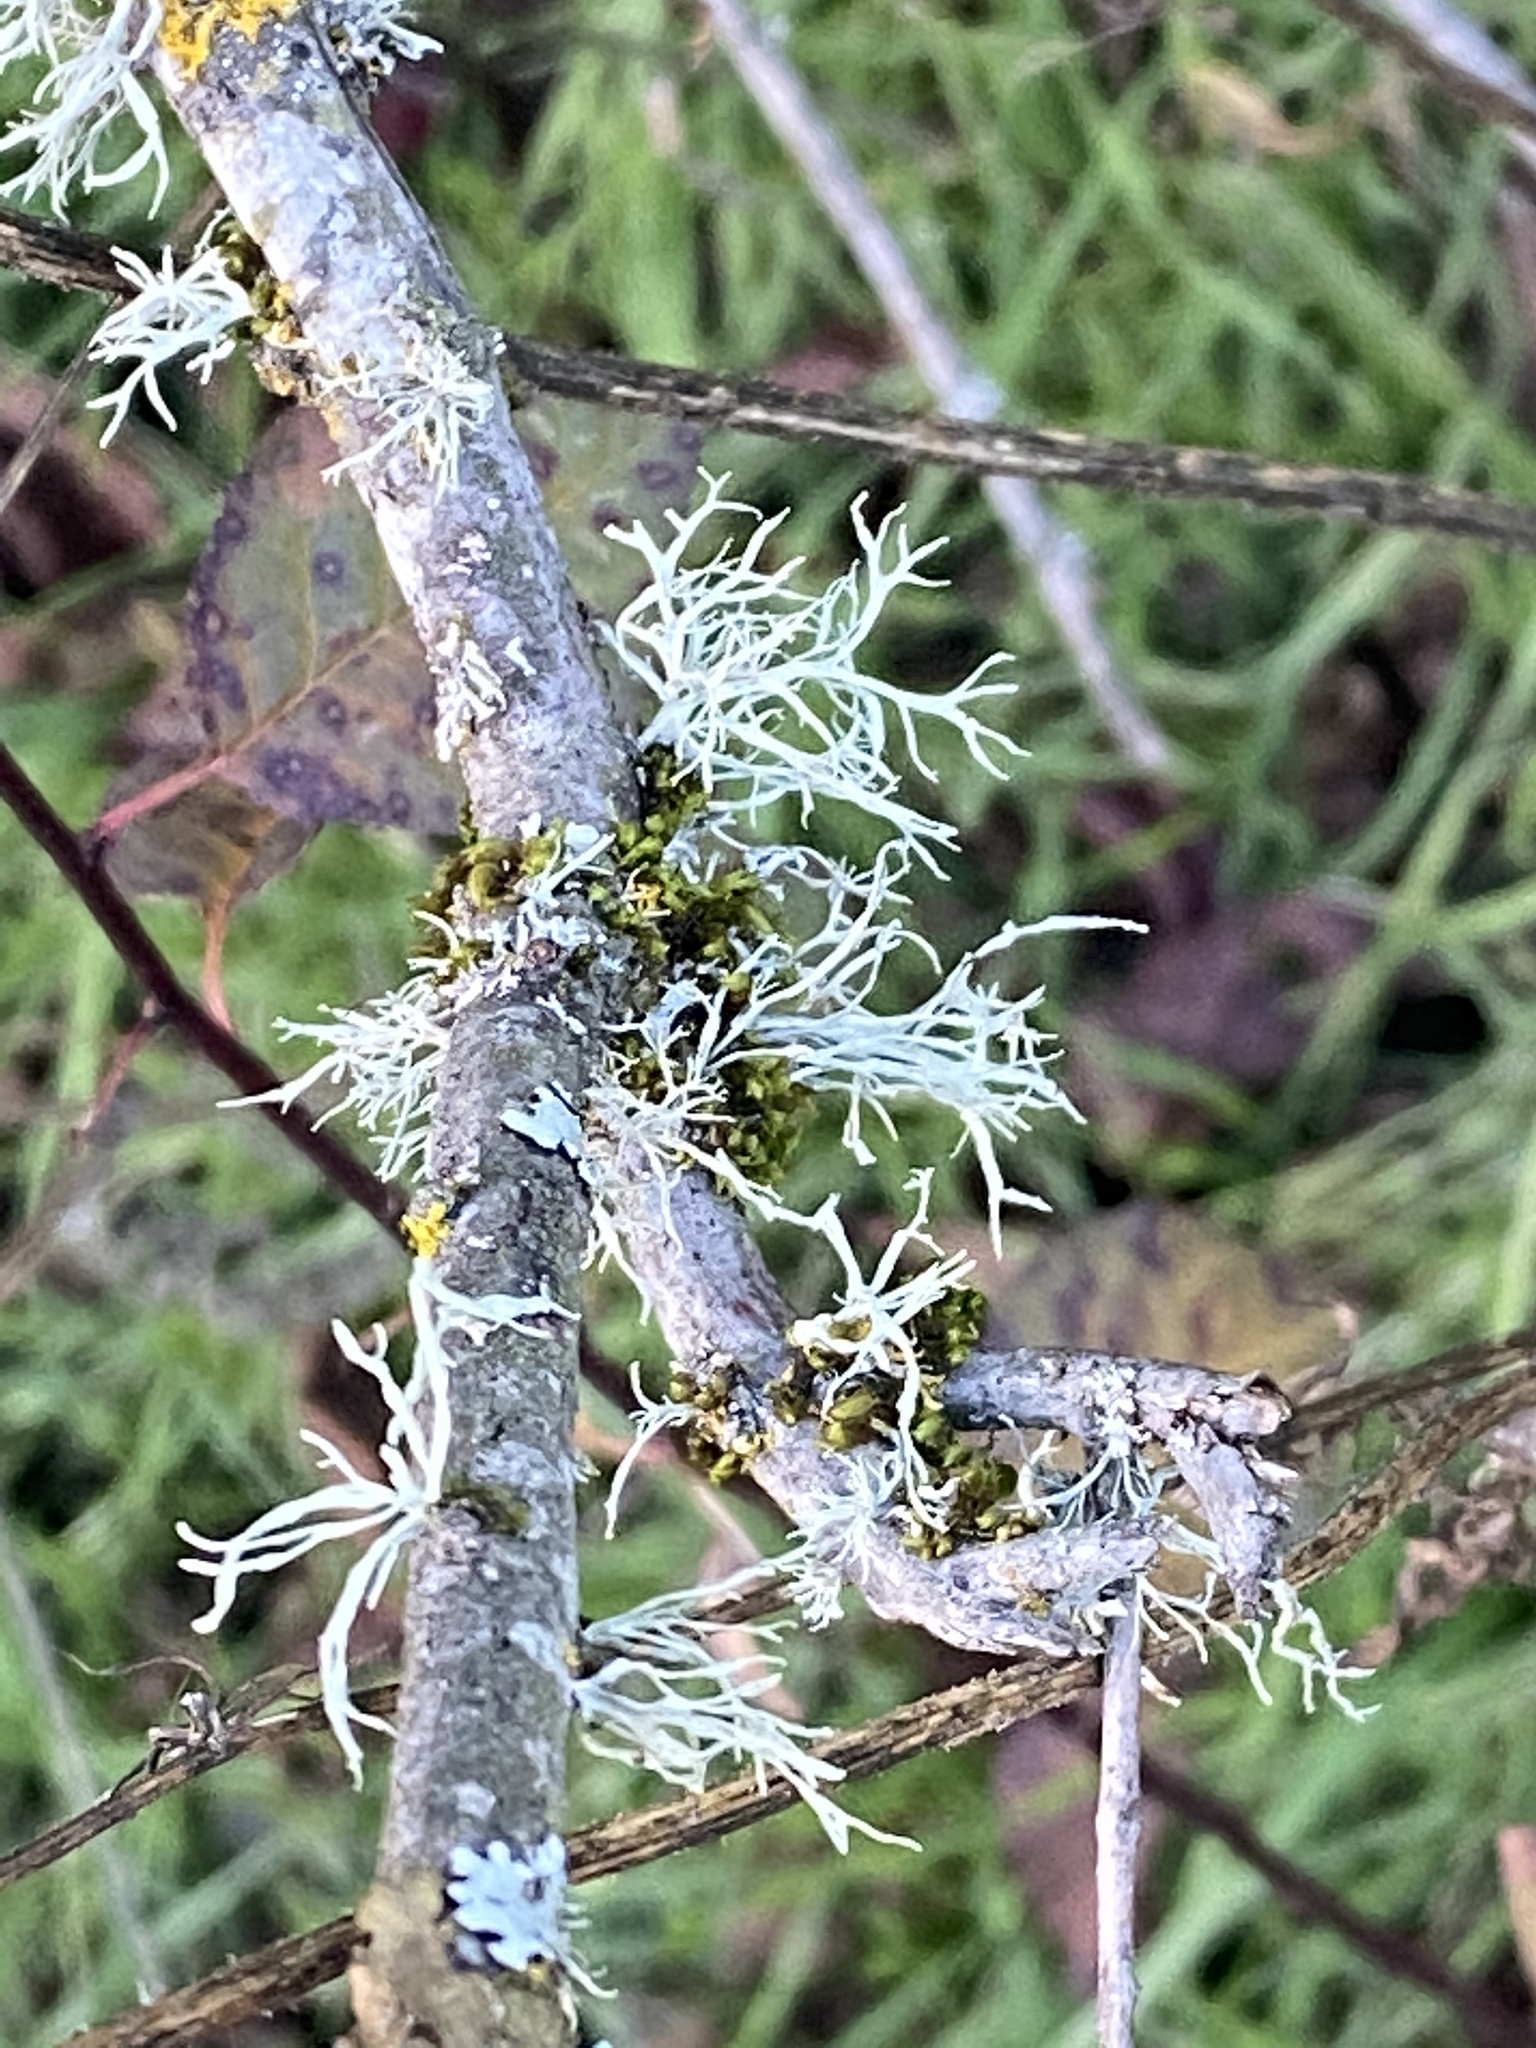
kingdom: Fungi
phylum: Ascomycota
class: Lecanoromycetes
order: Lecanorales
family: Ramalinaceae
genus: Ramalina
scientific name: Ramalina farinacea
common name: Farinose cartilage lichen
